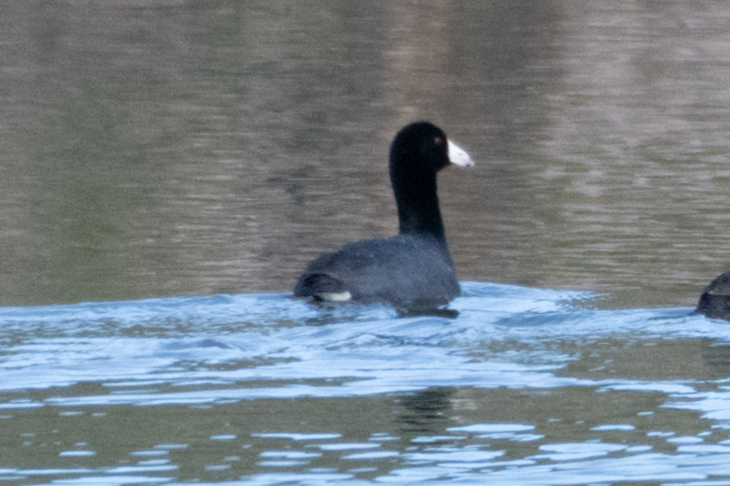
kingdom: Animalia
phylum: Chordata
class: Aves
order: Gruiformes
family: Rallidae
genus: Fulica
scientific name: Fulica americana
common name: American coot
